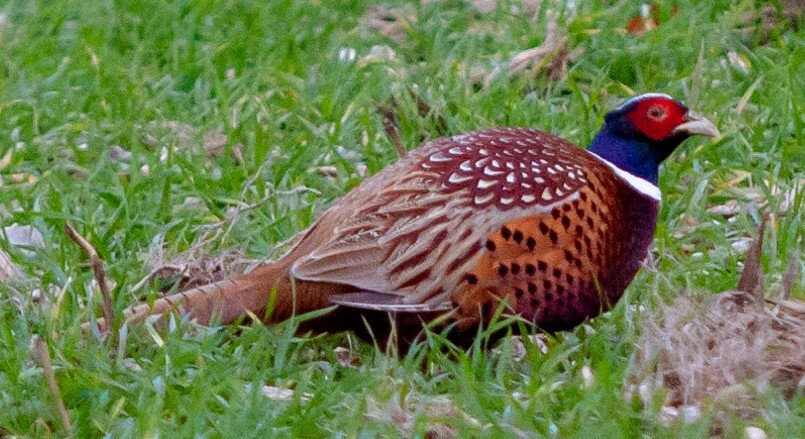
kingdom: Animalia
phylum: Chordata
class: Aves
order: Galliformes
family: Phasianidae
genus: Phasianus
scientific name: Phasianus colchicus
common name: Common pheasant
